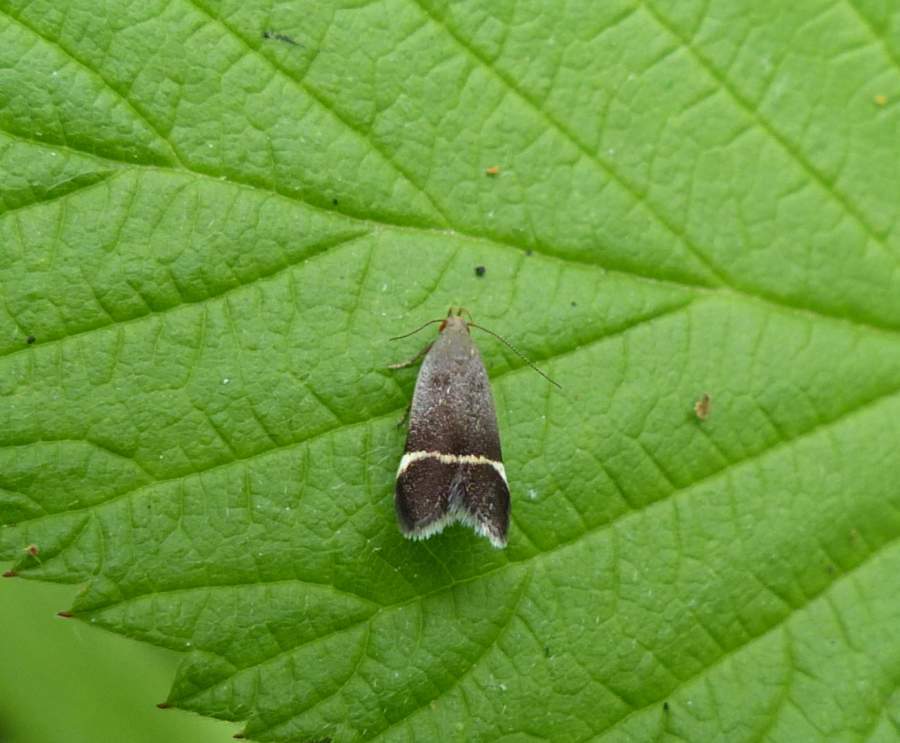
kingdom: Animalia
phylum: Arthropoda
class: Insecta
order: Lepidoptera
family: Gelechiidae
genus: Anacampsis
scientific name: Anacampsis agrimoniella
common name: Agrimony anacampsis moth
